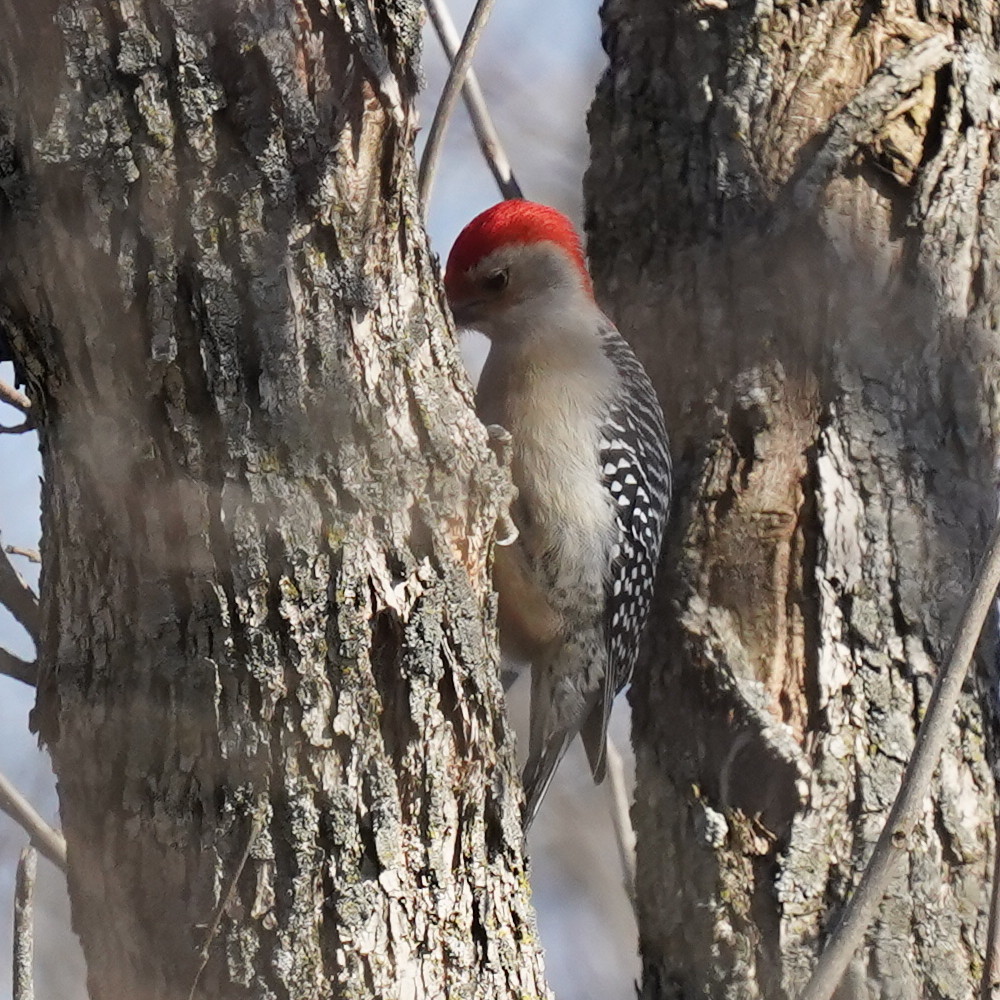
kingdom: Animalia
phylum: Chordata
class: Aves
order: Piciformes
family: Picidae
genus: Melanerpes
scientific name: Melanerpes carolinus
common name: Red-bellied woodpecker
